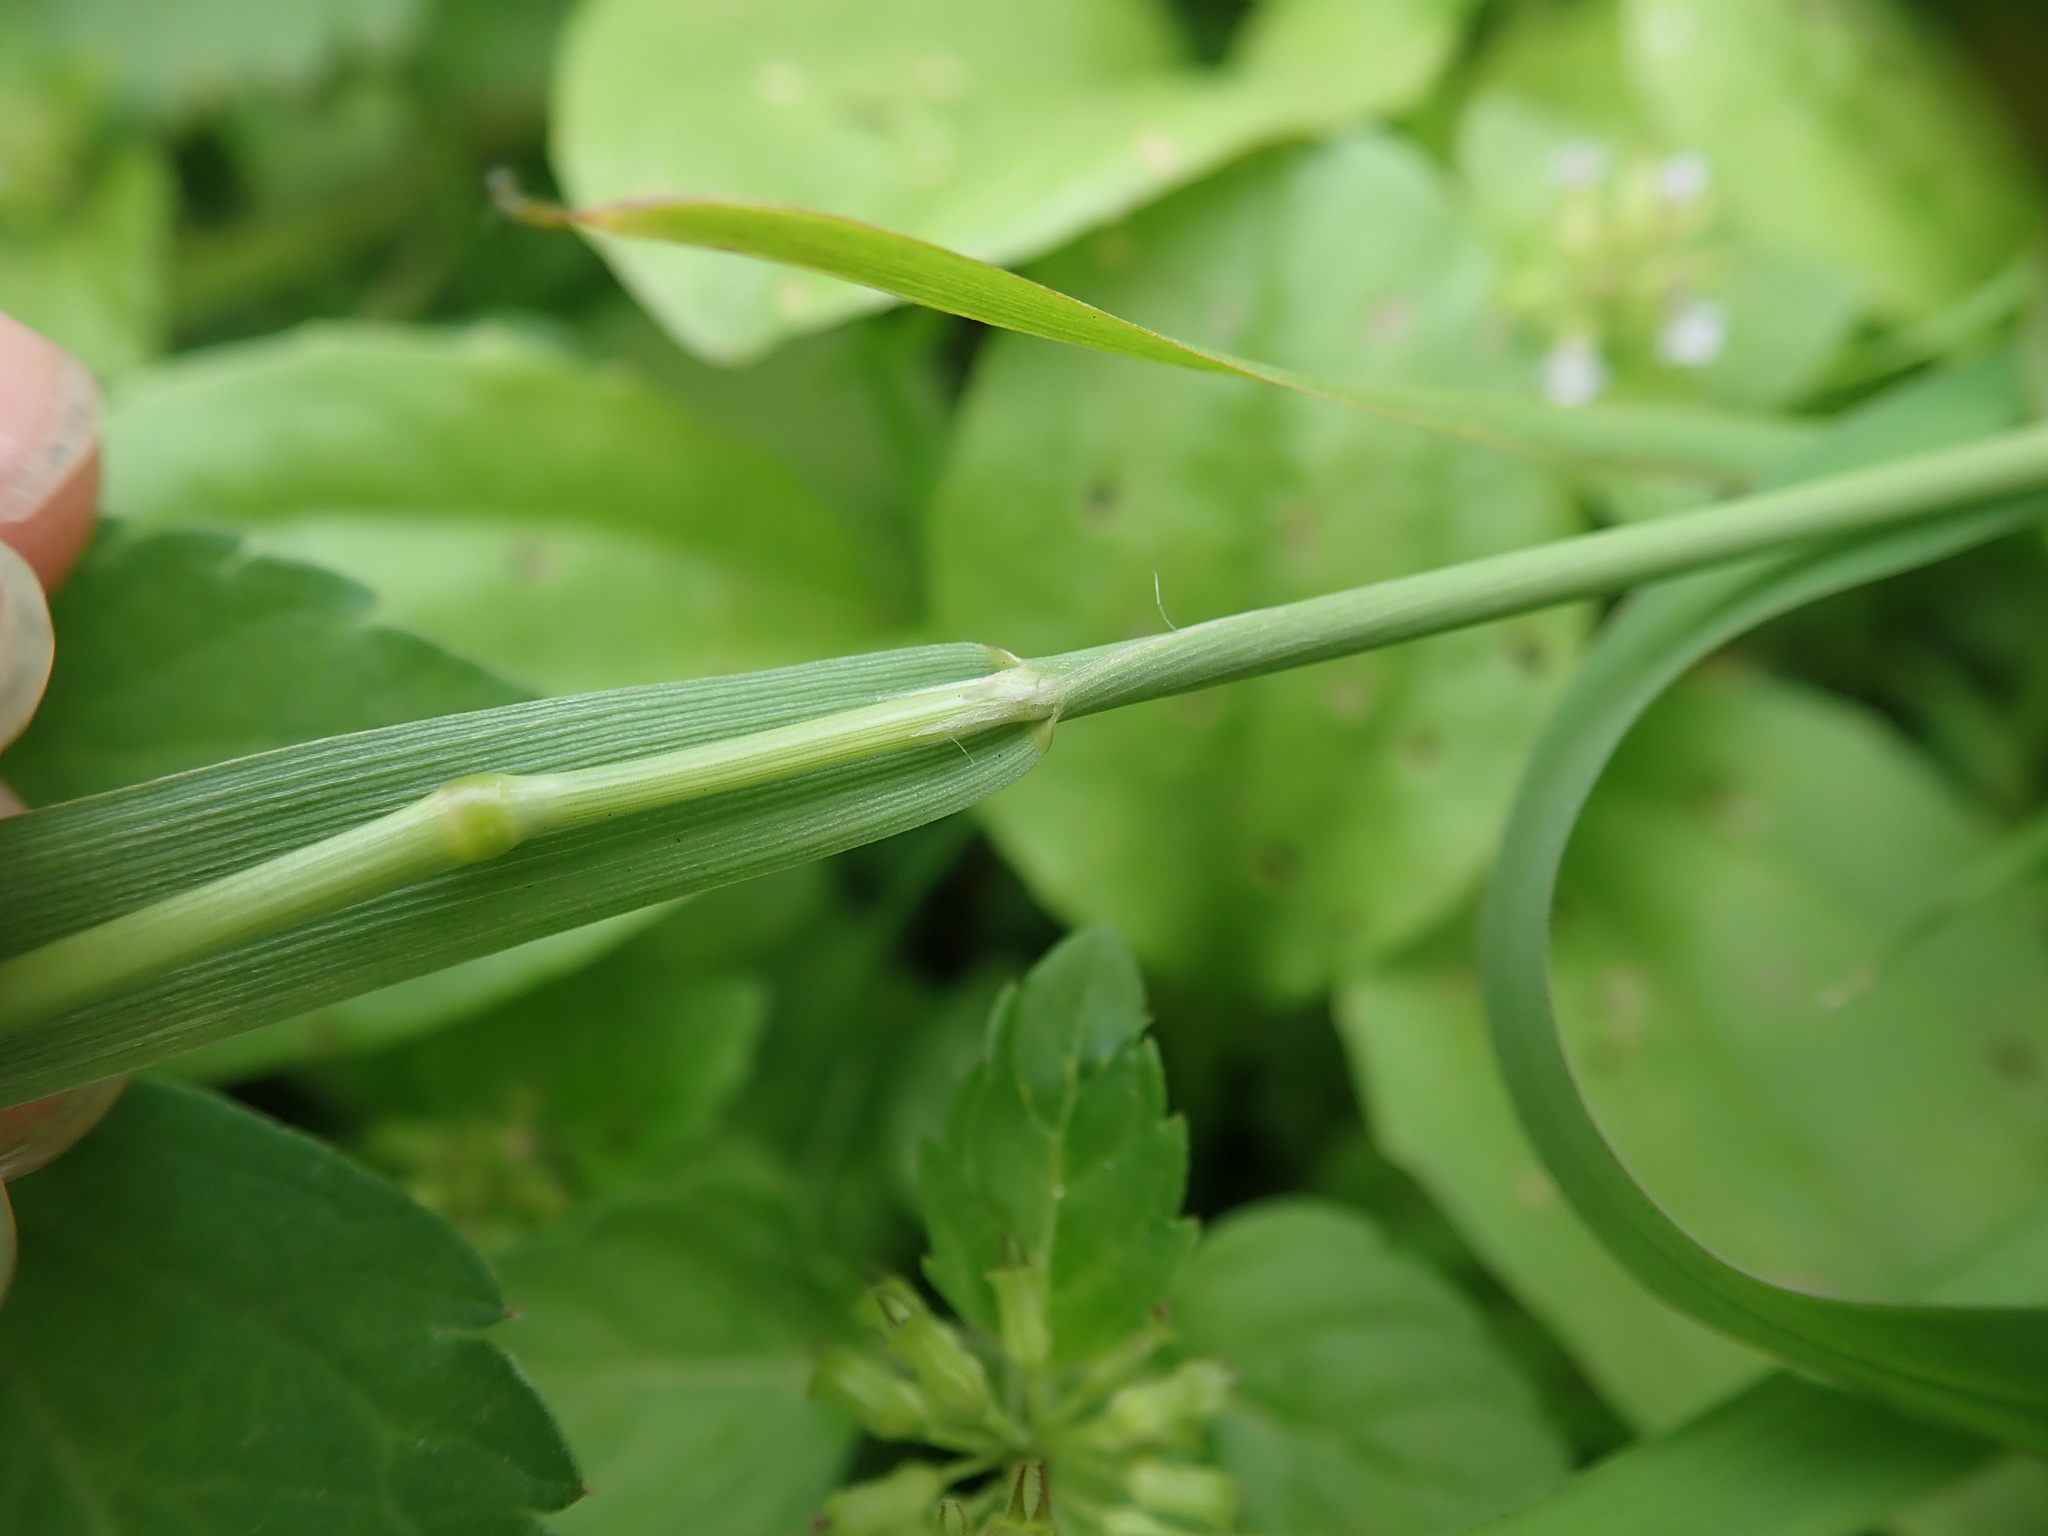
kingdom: Plantae
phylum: Tracheophyta
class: Liliopsida
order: Poales
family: Poaceae
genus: Polypogon
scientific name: Polypogon fugax
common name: Asia minor bluegrass
